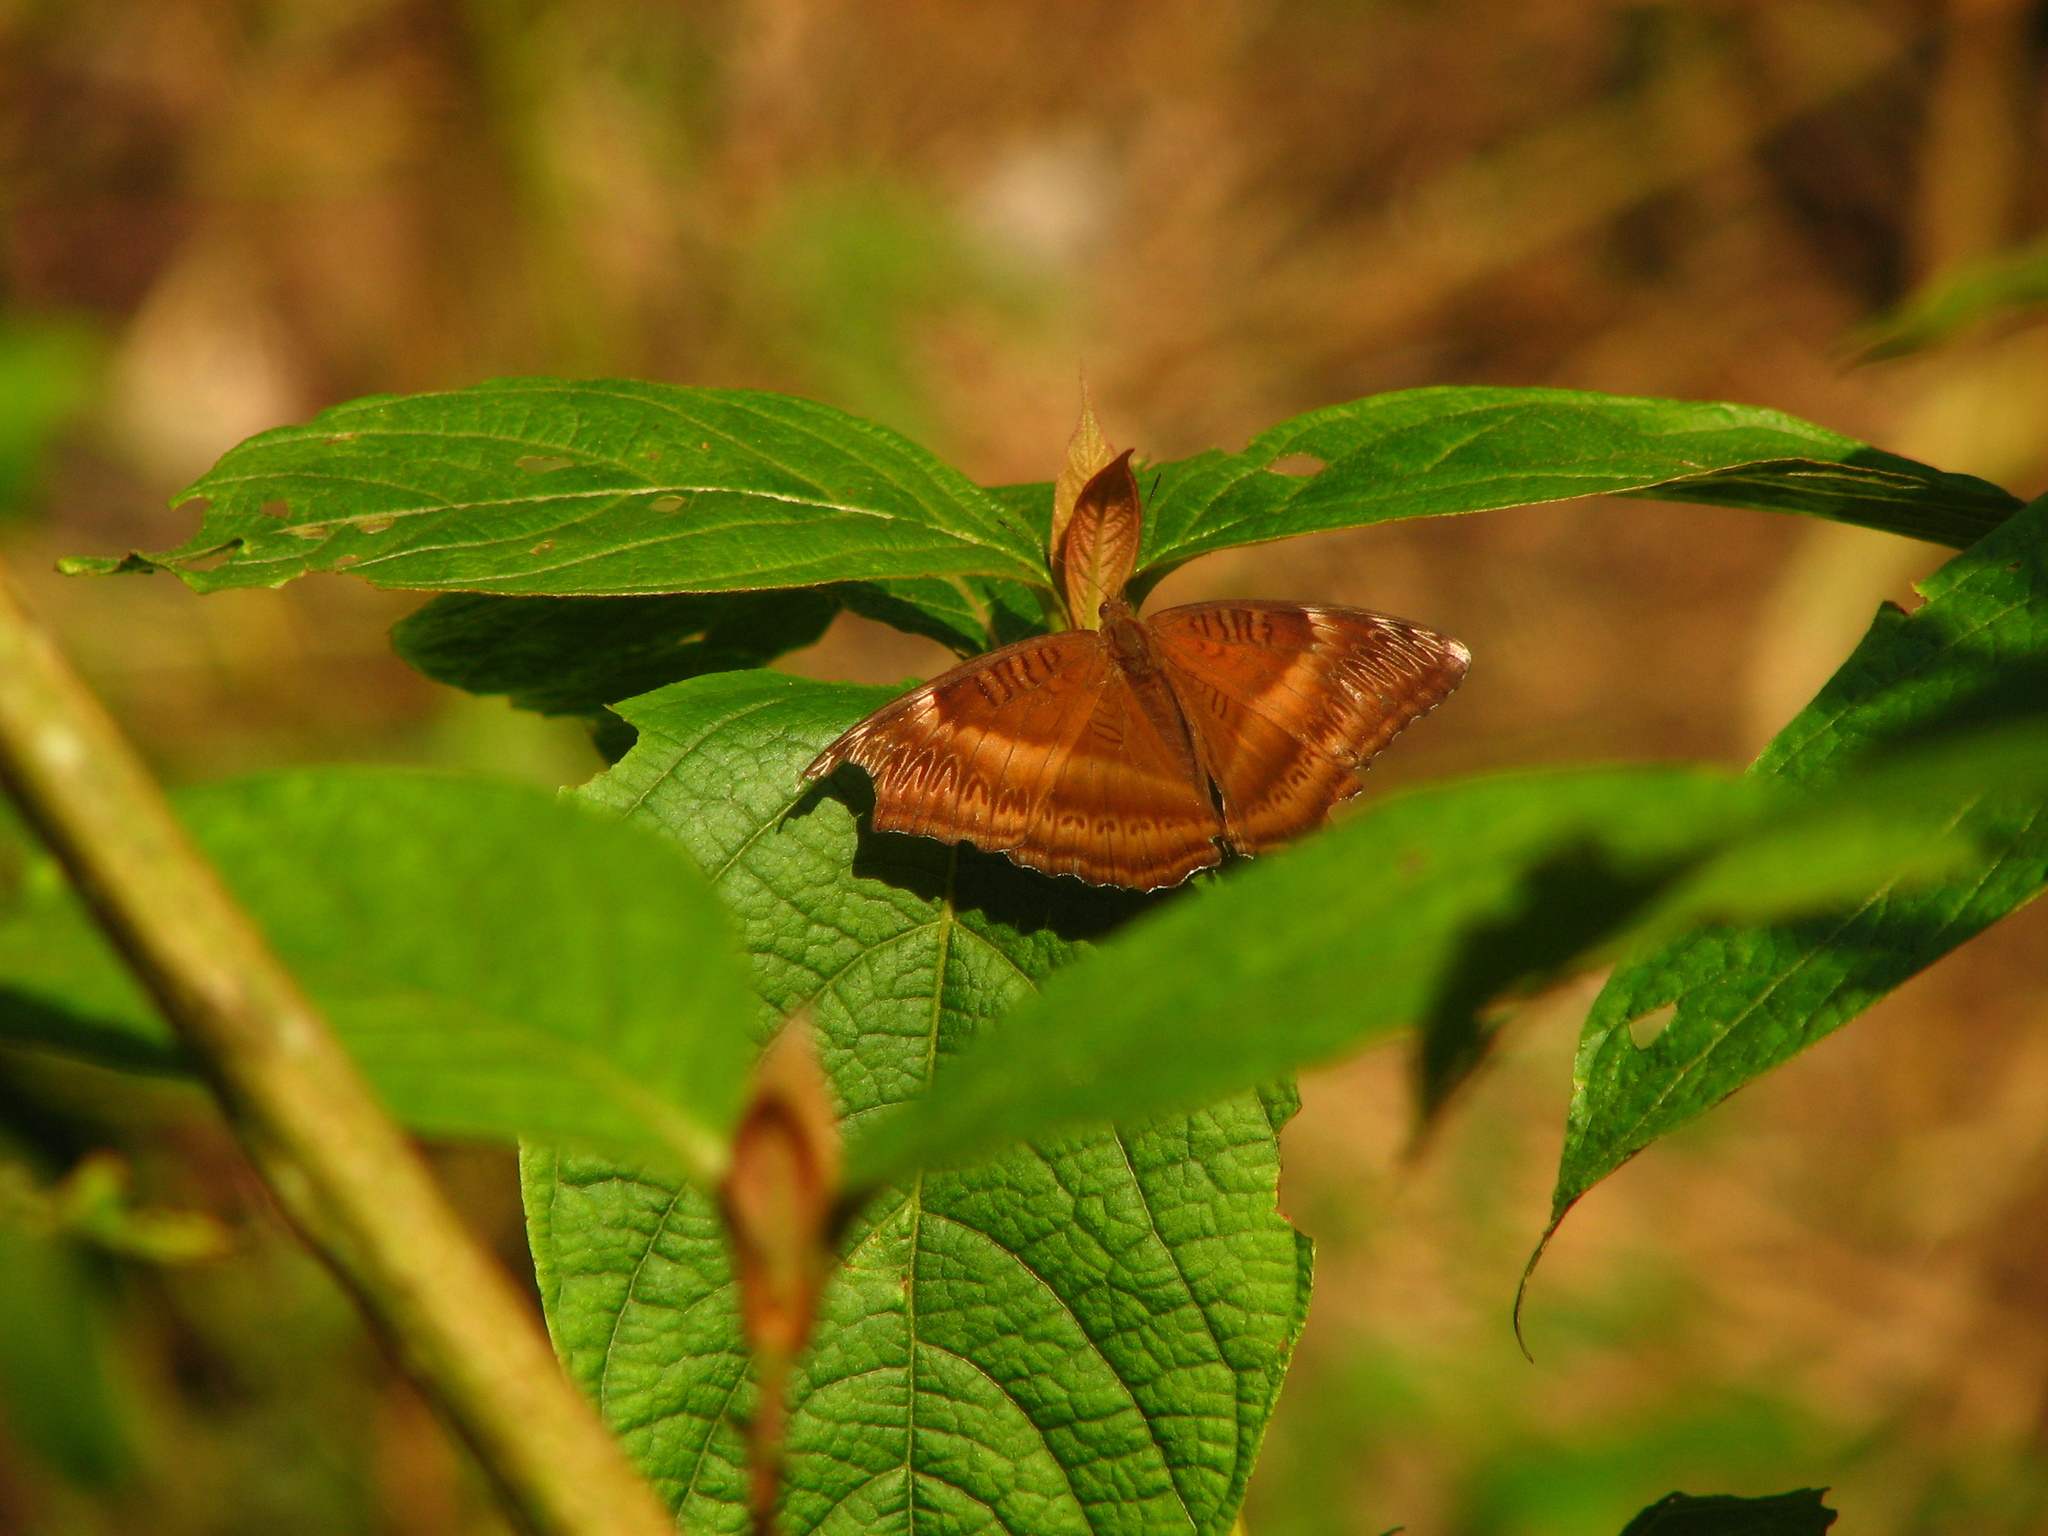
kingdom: Animalia
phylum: Arthropoda
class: Insecta
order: Lepidoptera
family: Nymphalidae
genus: Limenitis
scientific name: Limenitis Bhagadatta austenia
